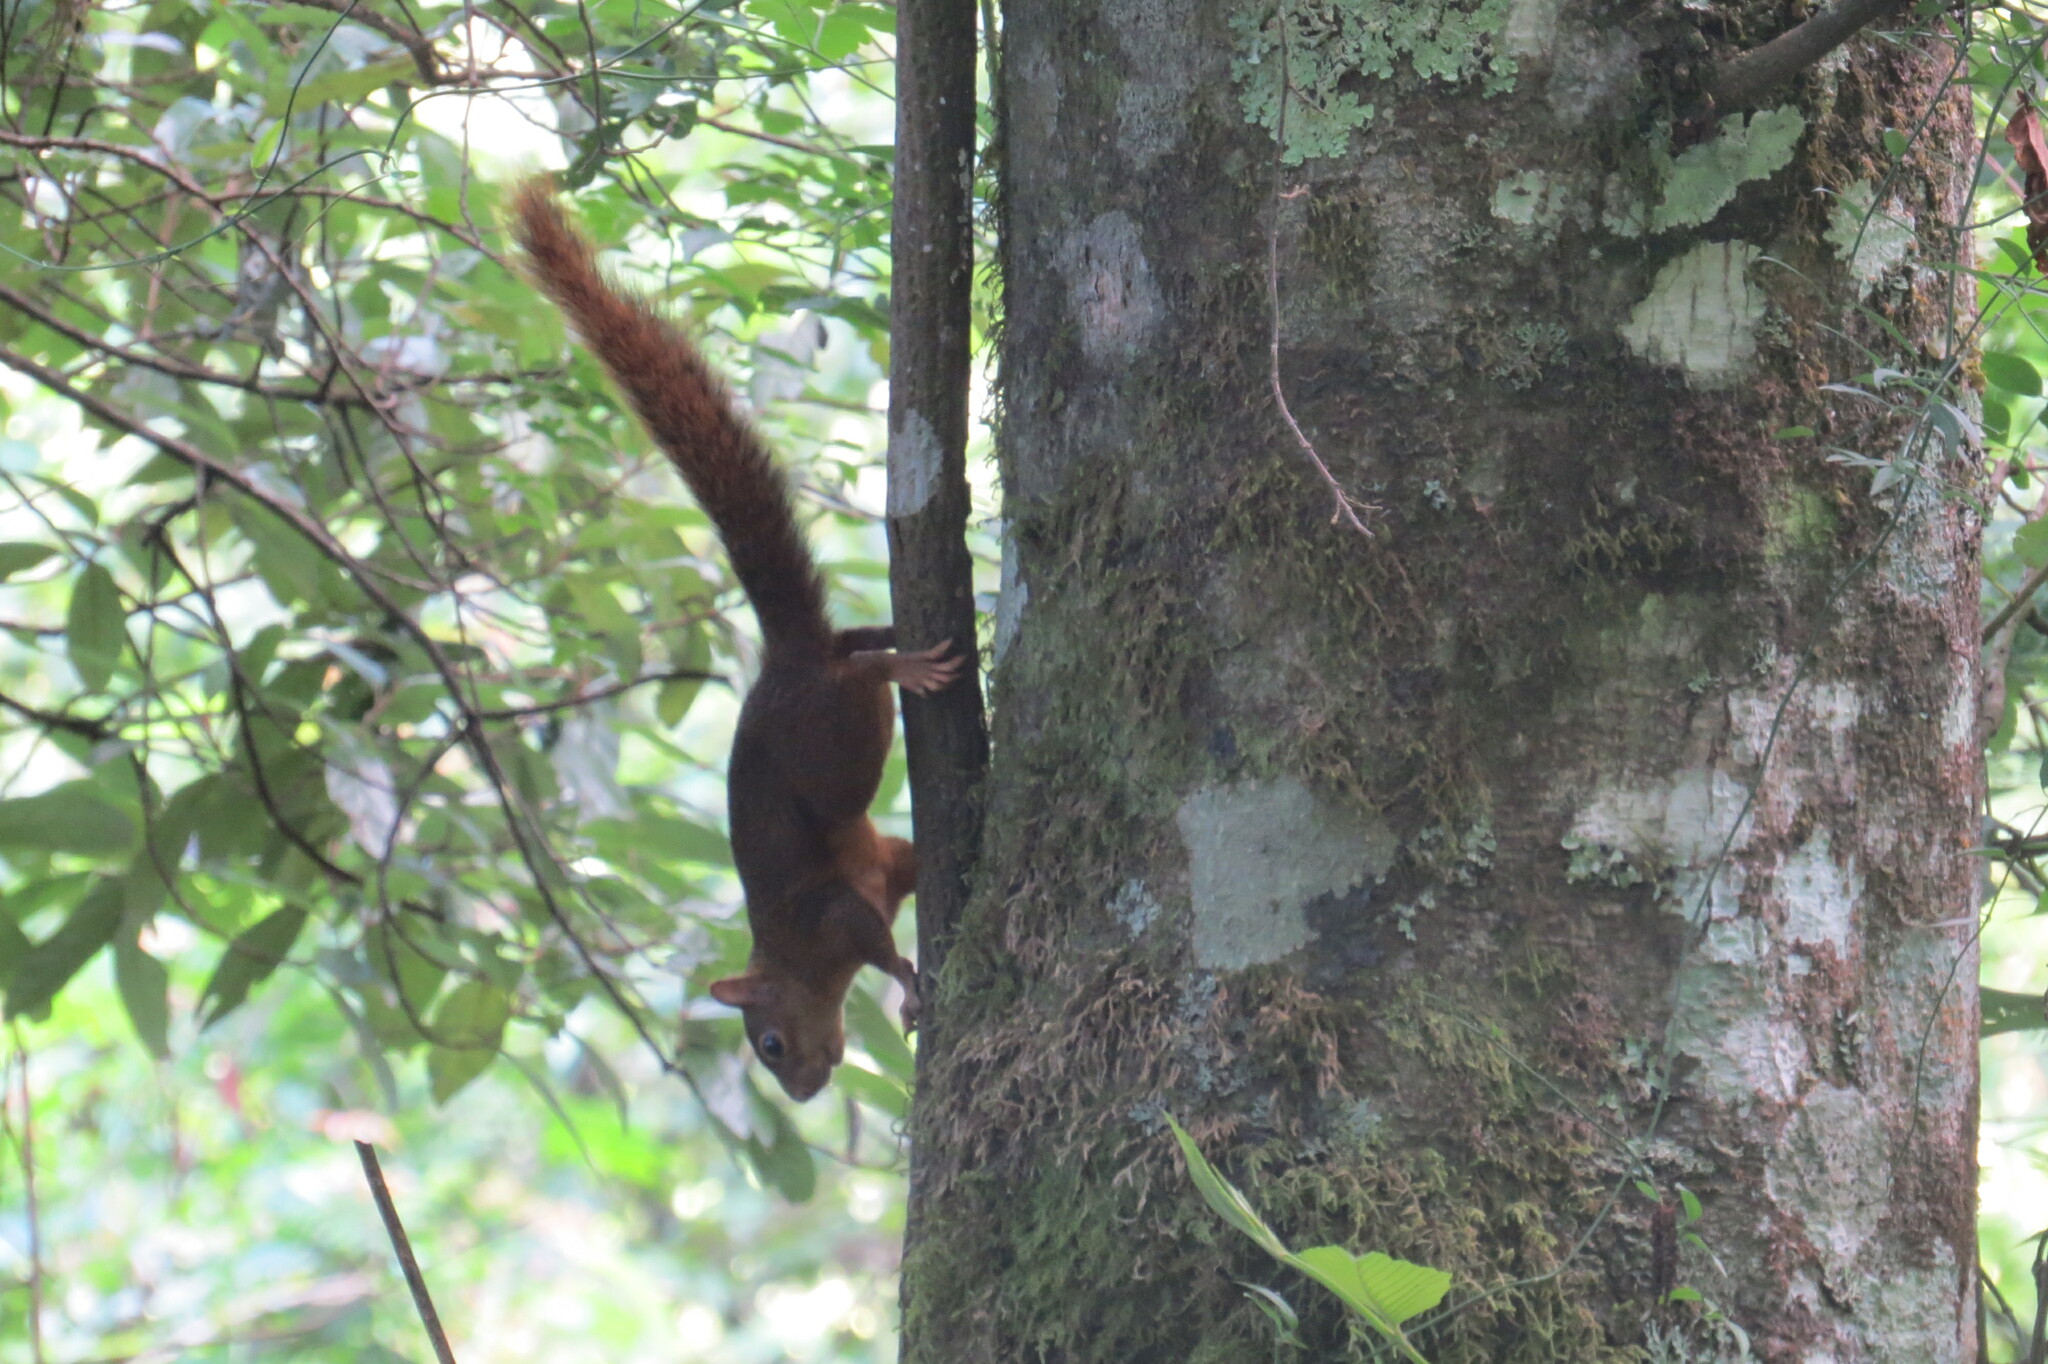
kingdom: Animalia
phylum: Chordata
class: Mammalia
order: Rodentia
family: Sciuridae
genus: Sciurus
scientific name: Sciurus ignitus
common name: Bolivian squirrel
